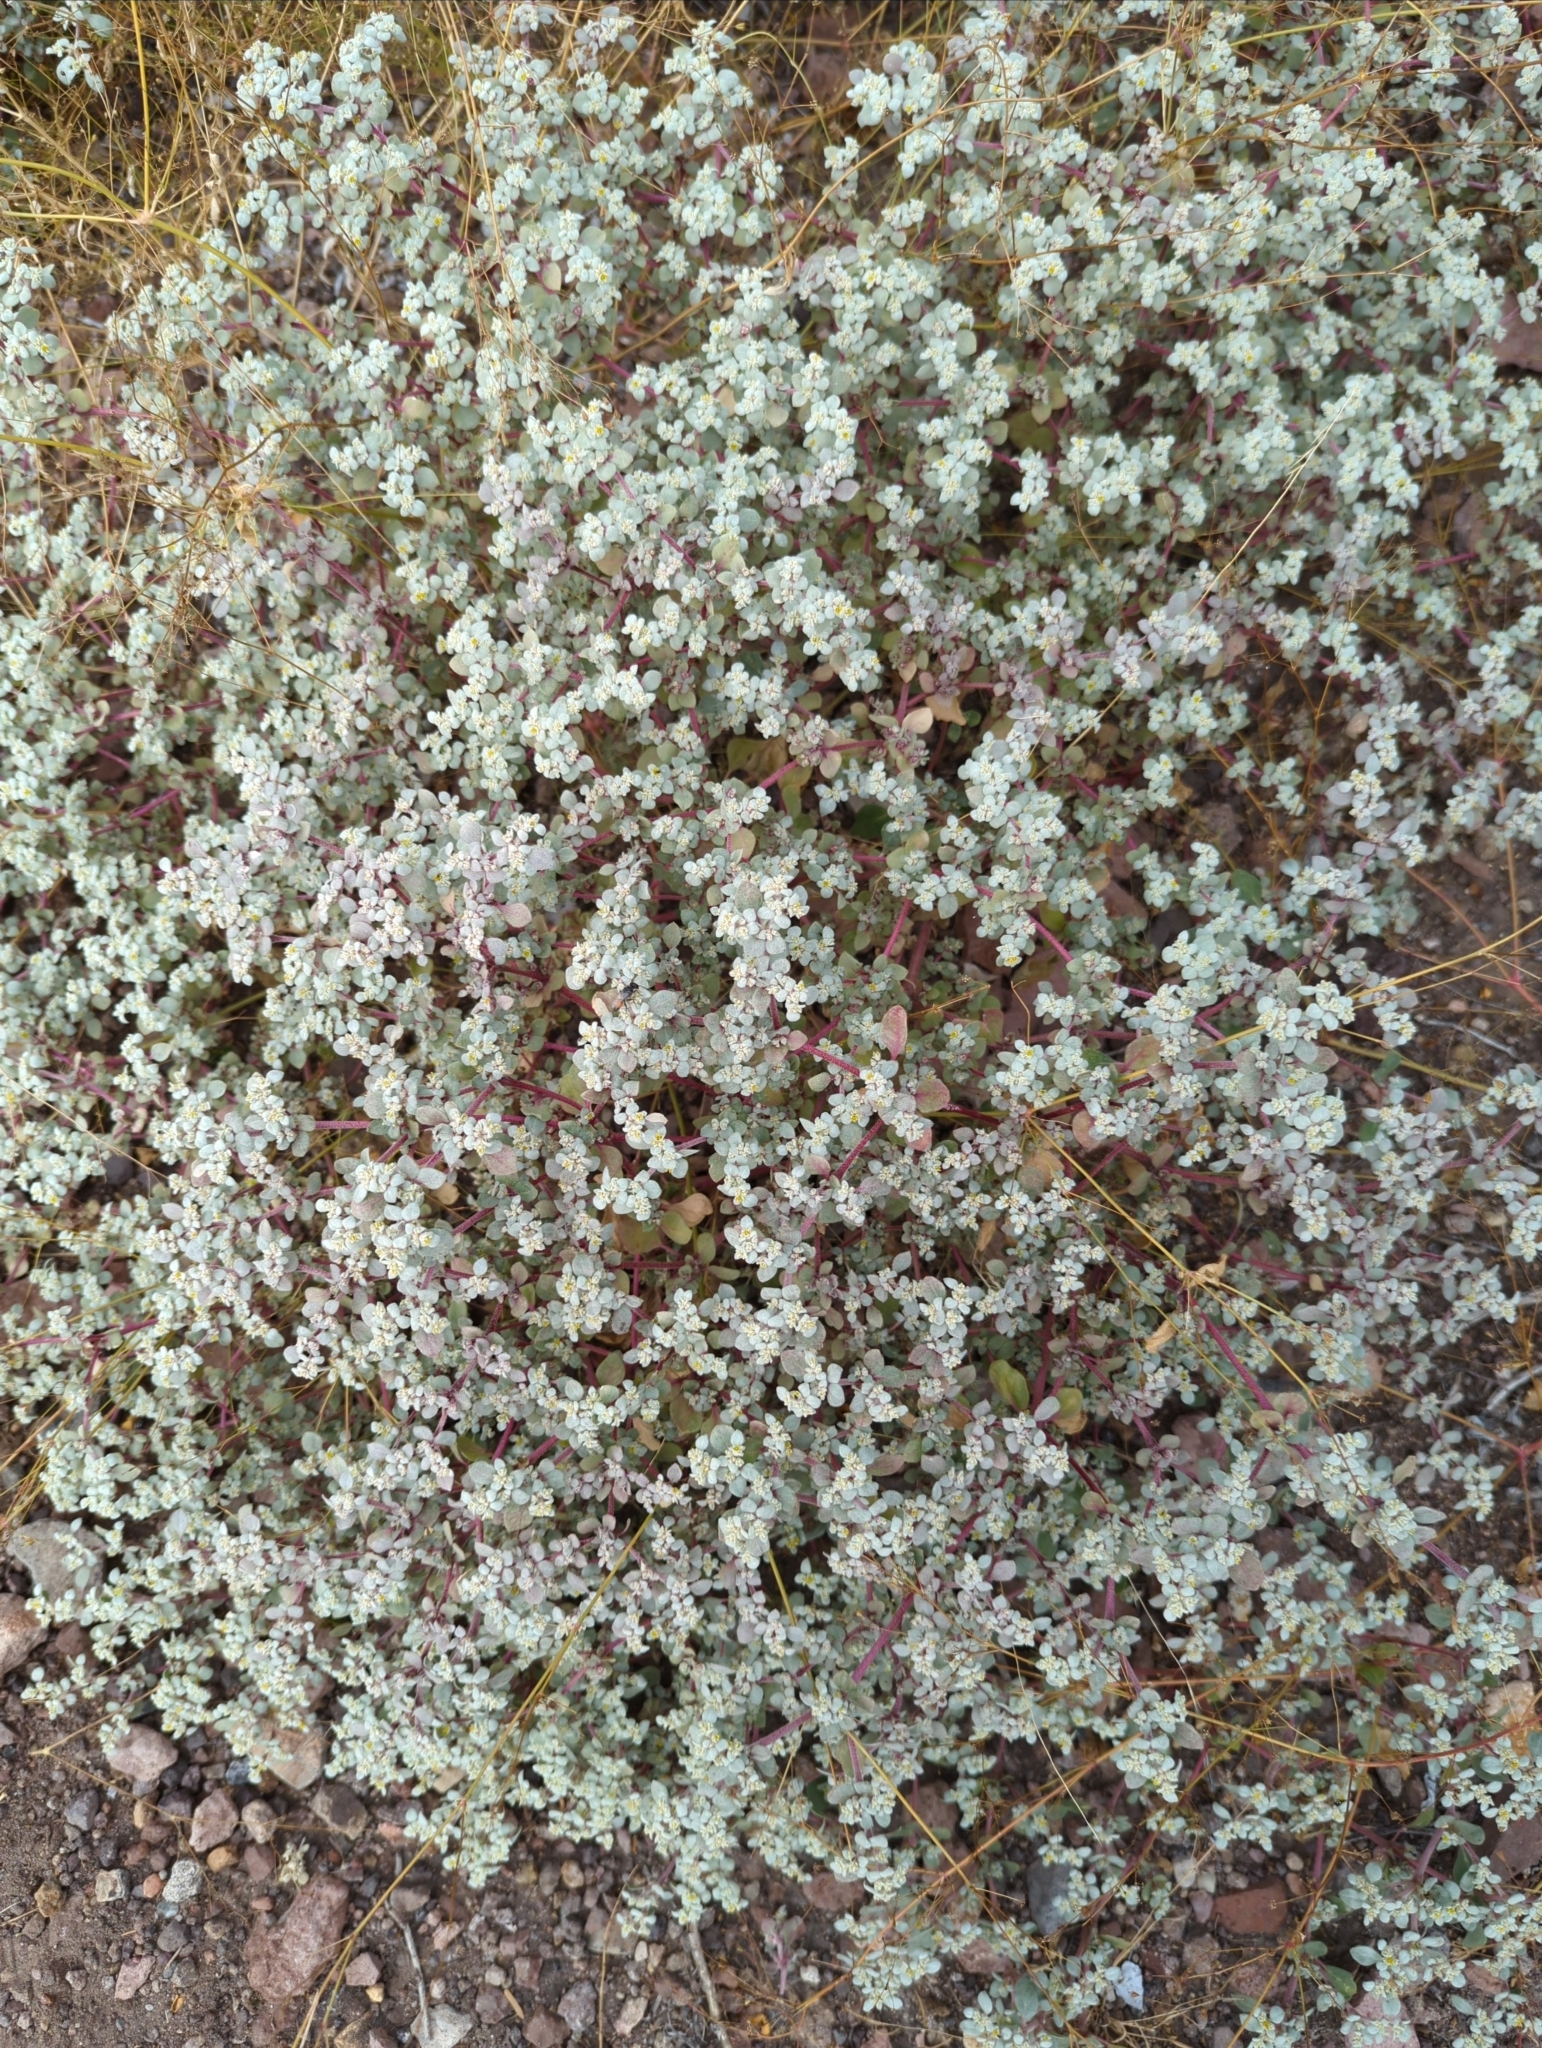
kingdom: Plantae
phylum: Tracheophyta
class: Magnoliopsida
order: Caryophyllales
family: Amaranthaceae
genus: Tidestromia
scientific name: Tidestromia lanuginosa
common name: Woolly tidestromia
